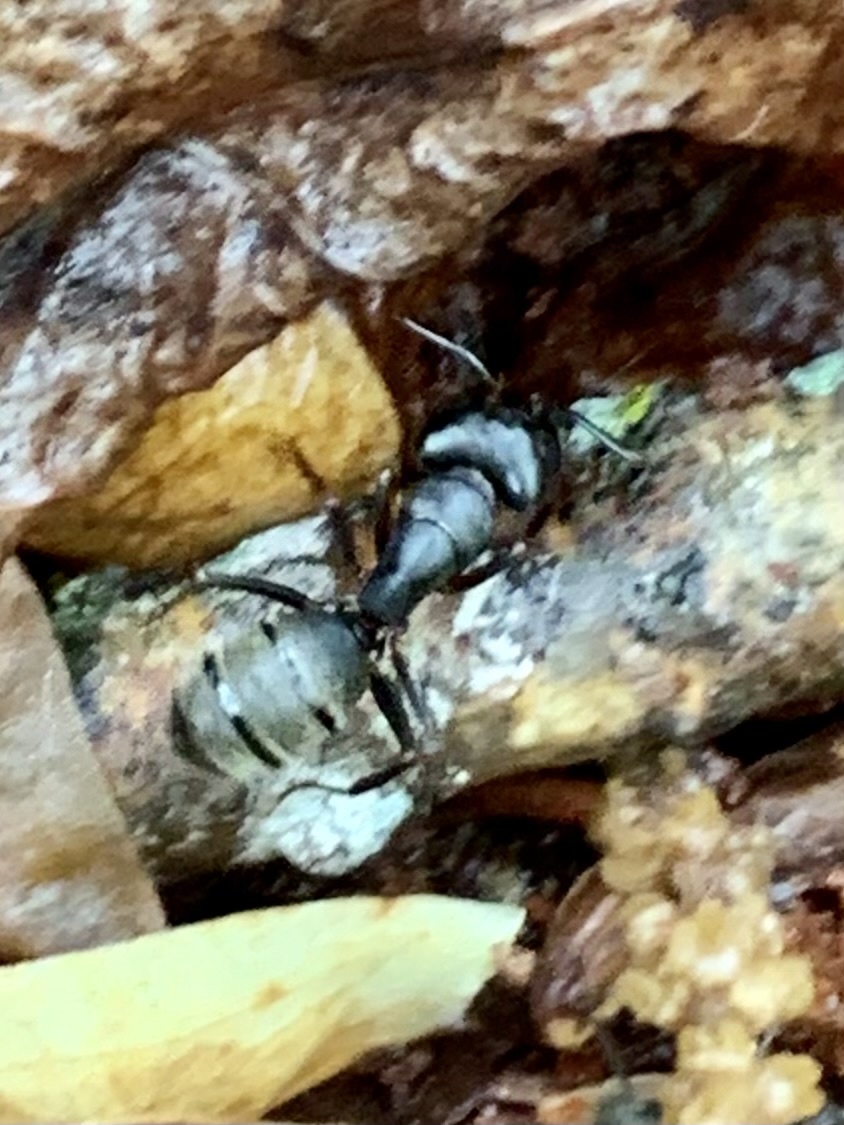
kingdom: Animalia
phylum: Arthropoda
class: Insecta
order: Hymenoptera
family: Formicidae
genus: Camponotus
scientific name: Camponotus pennsylvanicus
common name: Black carpenter ant
